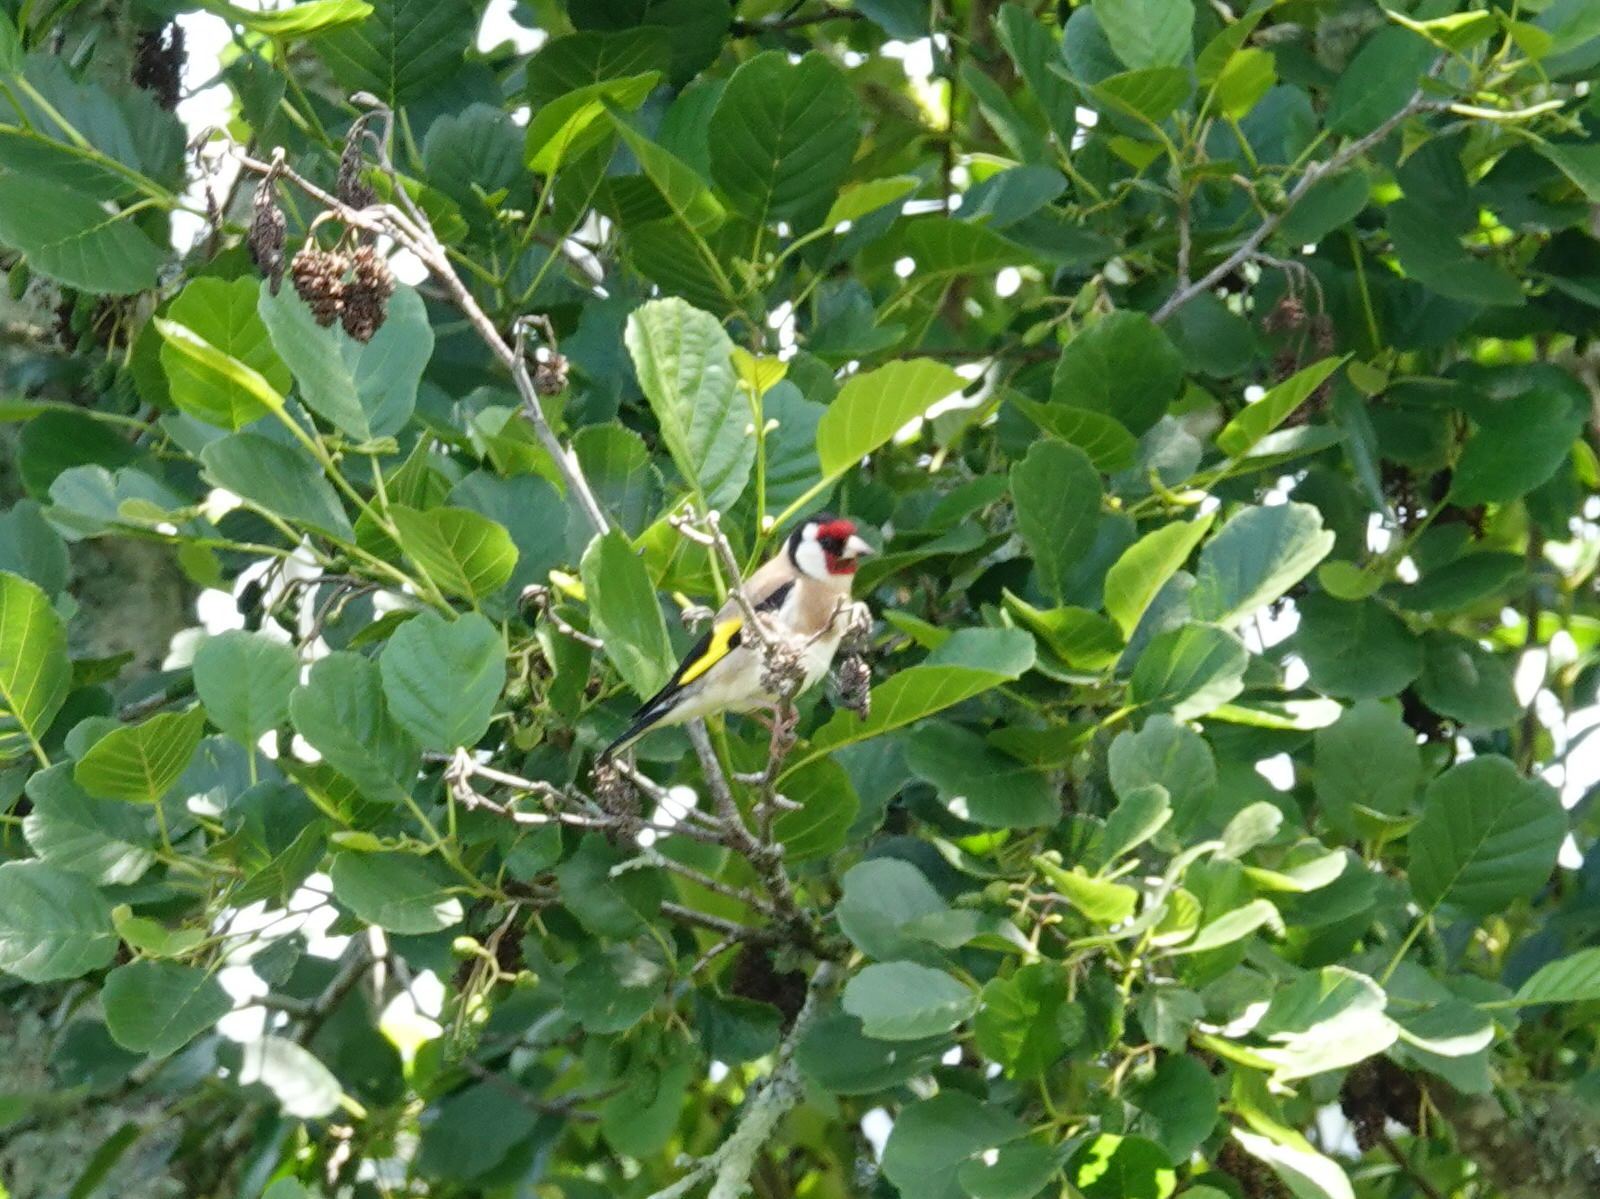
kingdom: Animalia
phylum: Chordata
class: Aves
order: Passeriformes
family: Fringillidae
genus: Carduelis
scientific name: Carduelis carduelis
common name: European goldfinch
